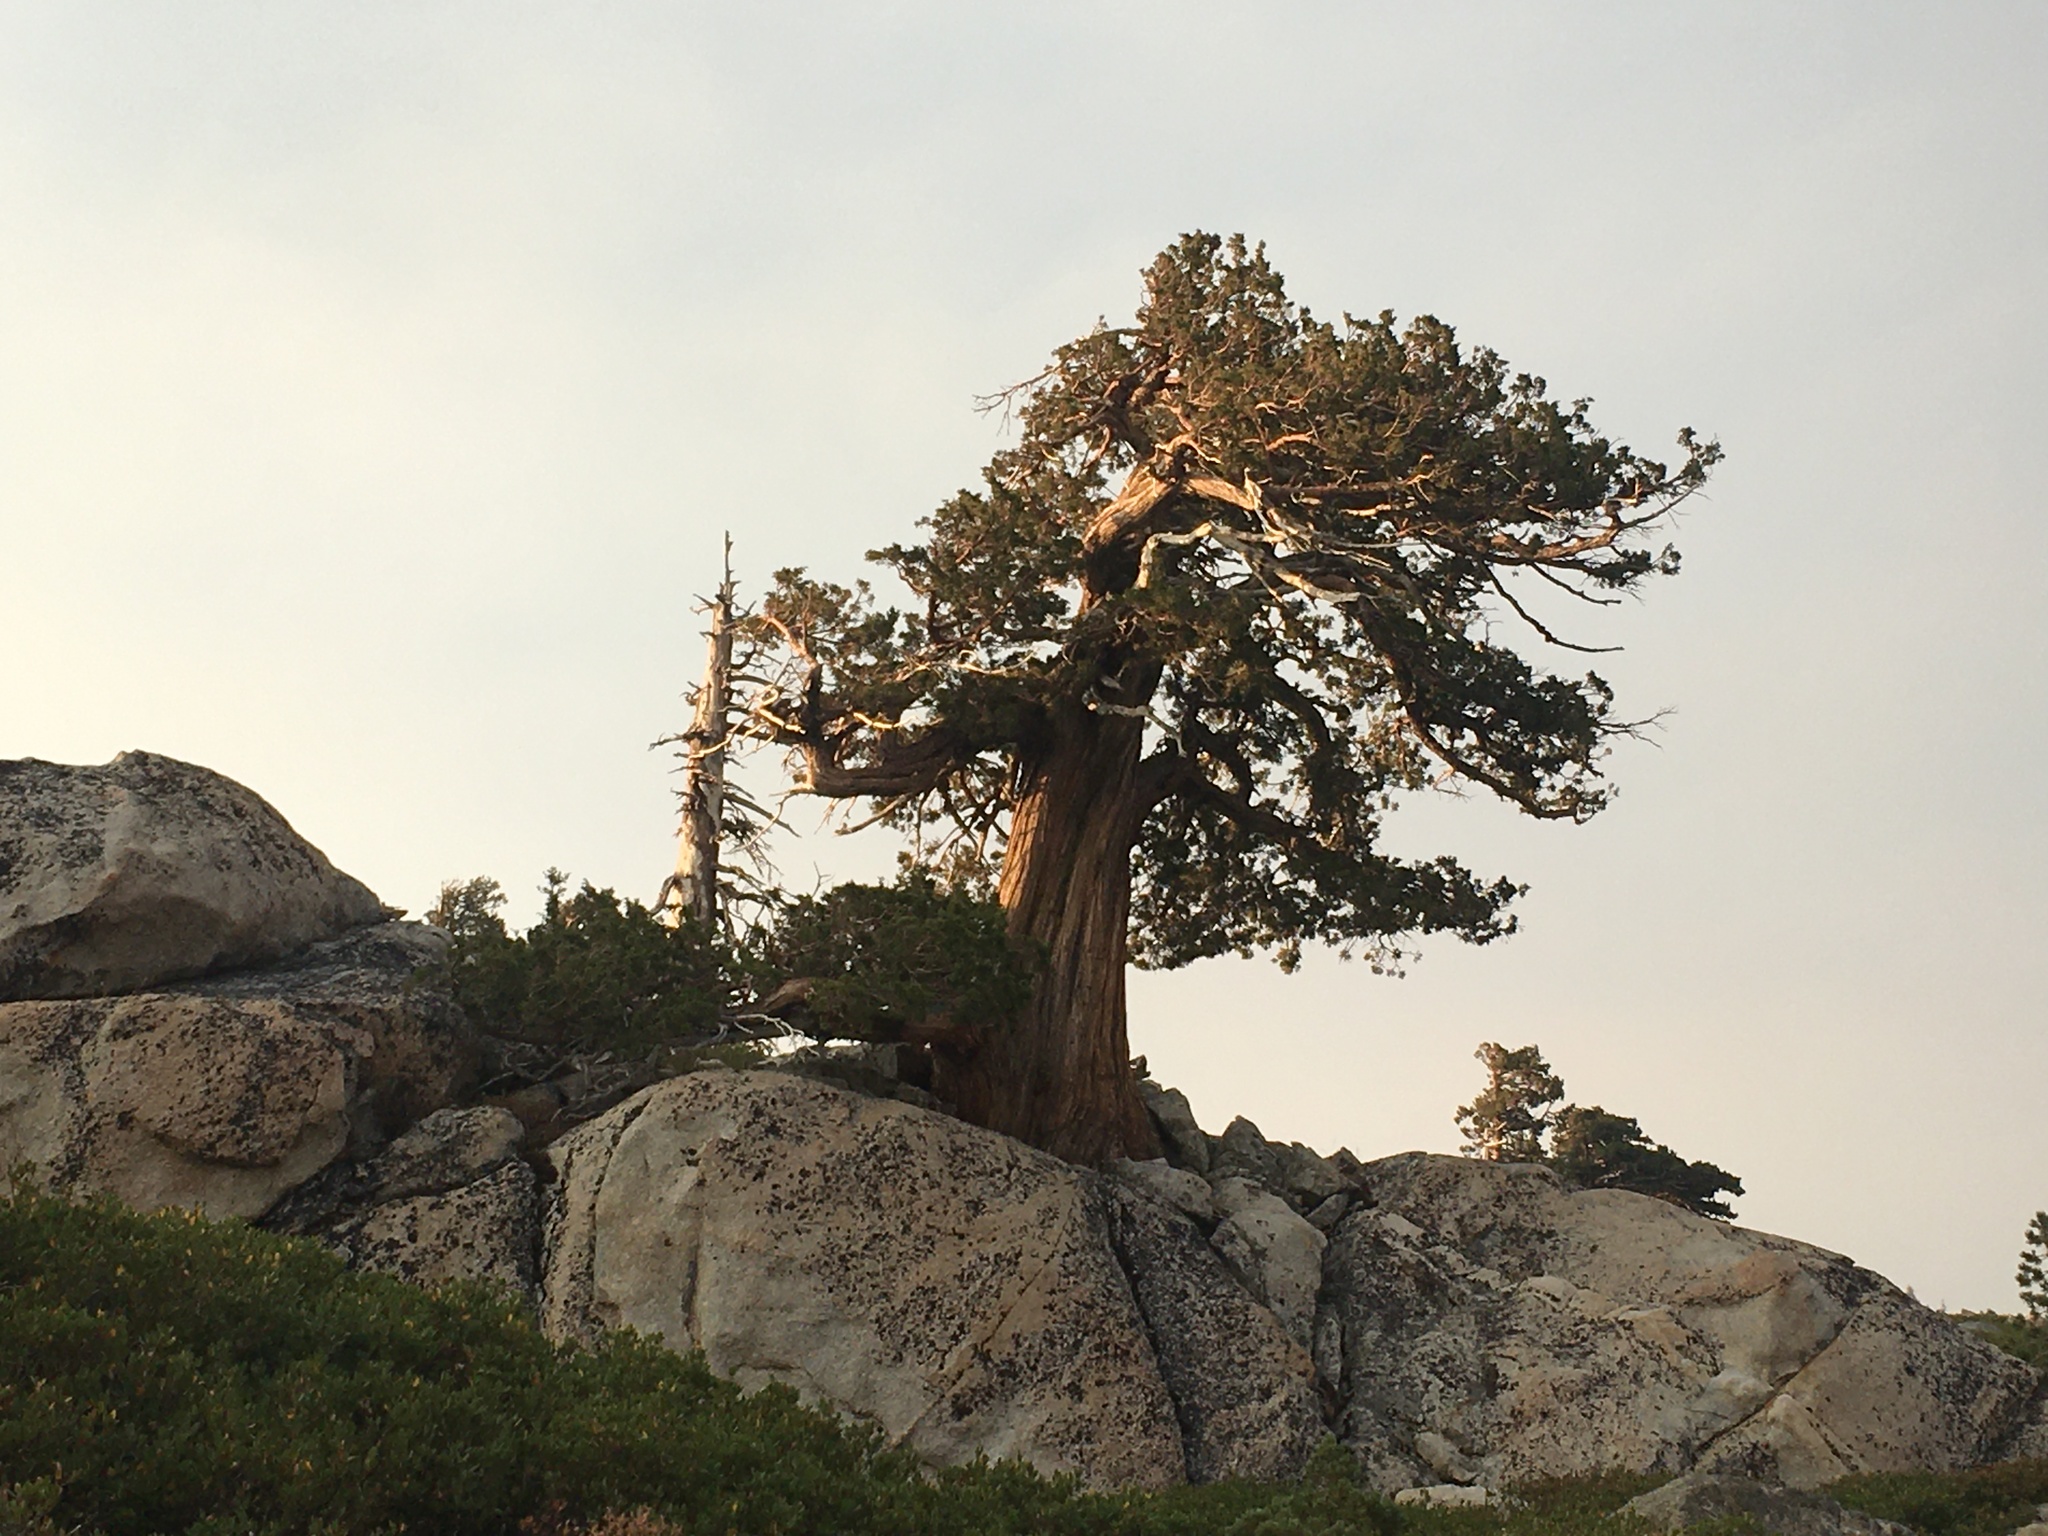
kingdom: Plantae
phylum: Tracheophyta
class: Pinopsida
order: Pinales
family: Cupressaceae
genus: Juniperus
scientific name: Juniperus occidentalis
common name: Western juniper
